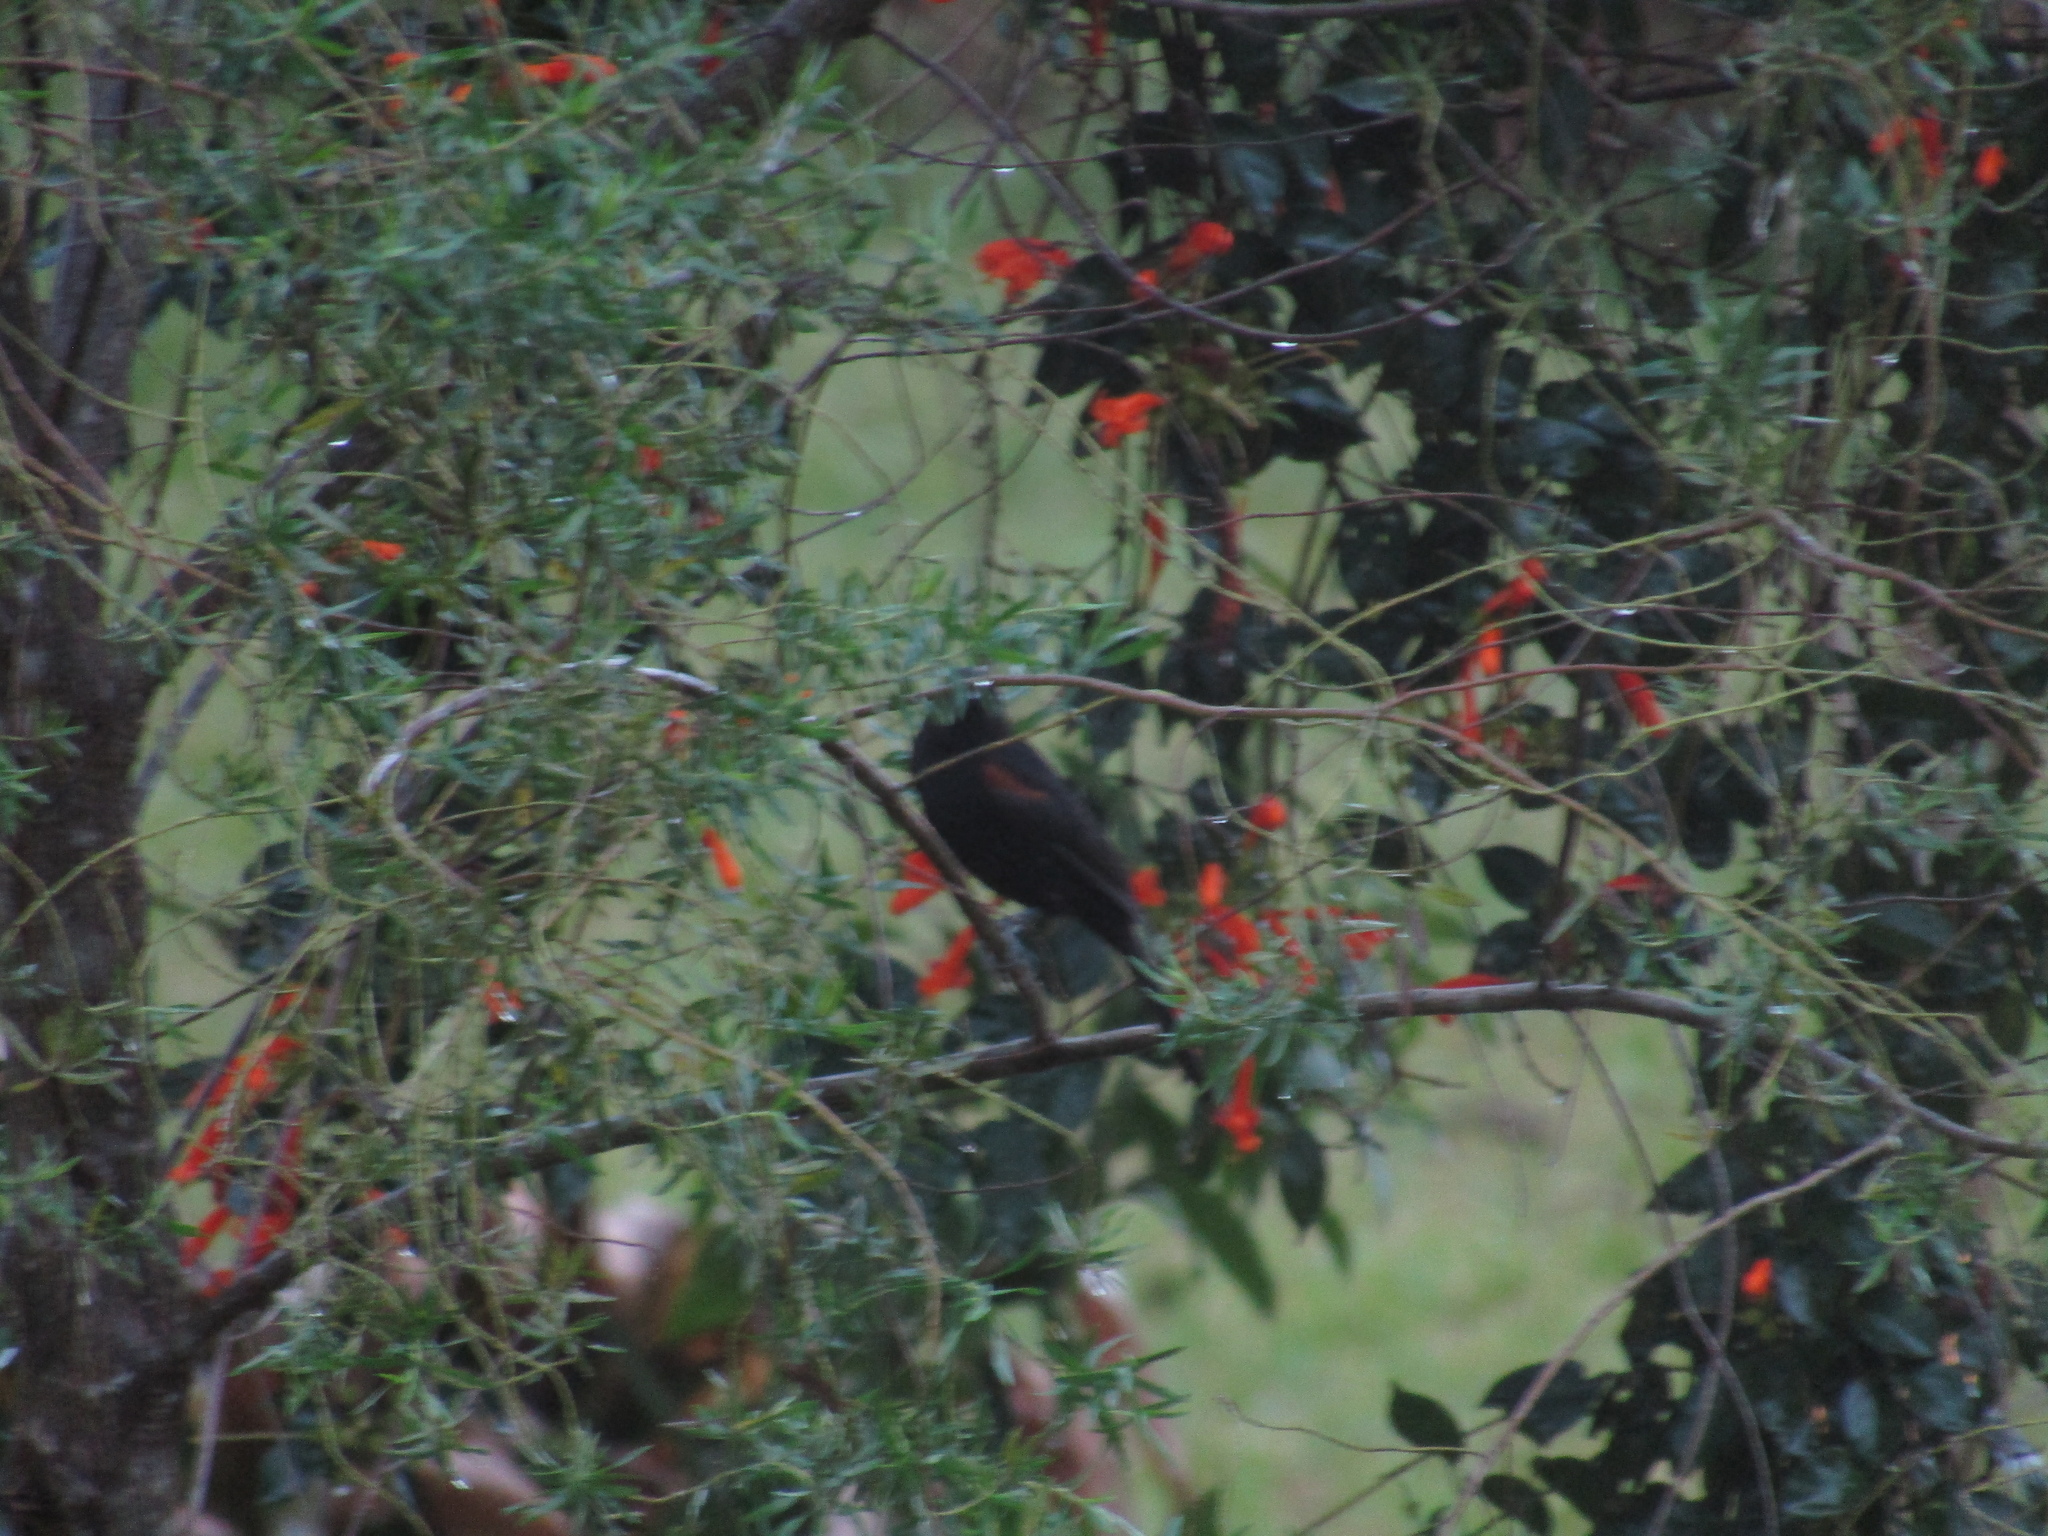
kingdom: Animalia
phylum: Chordata
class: Aves
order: Passeriformes
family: Icteridae
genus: Icterus
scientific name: Icterus cayanensis
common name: Epaulet oriole
